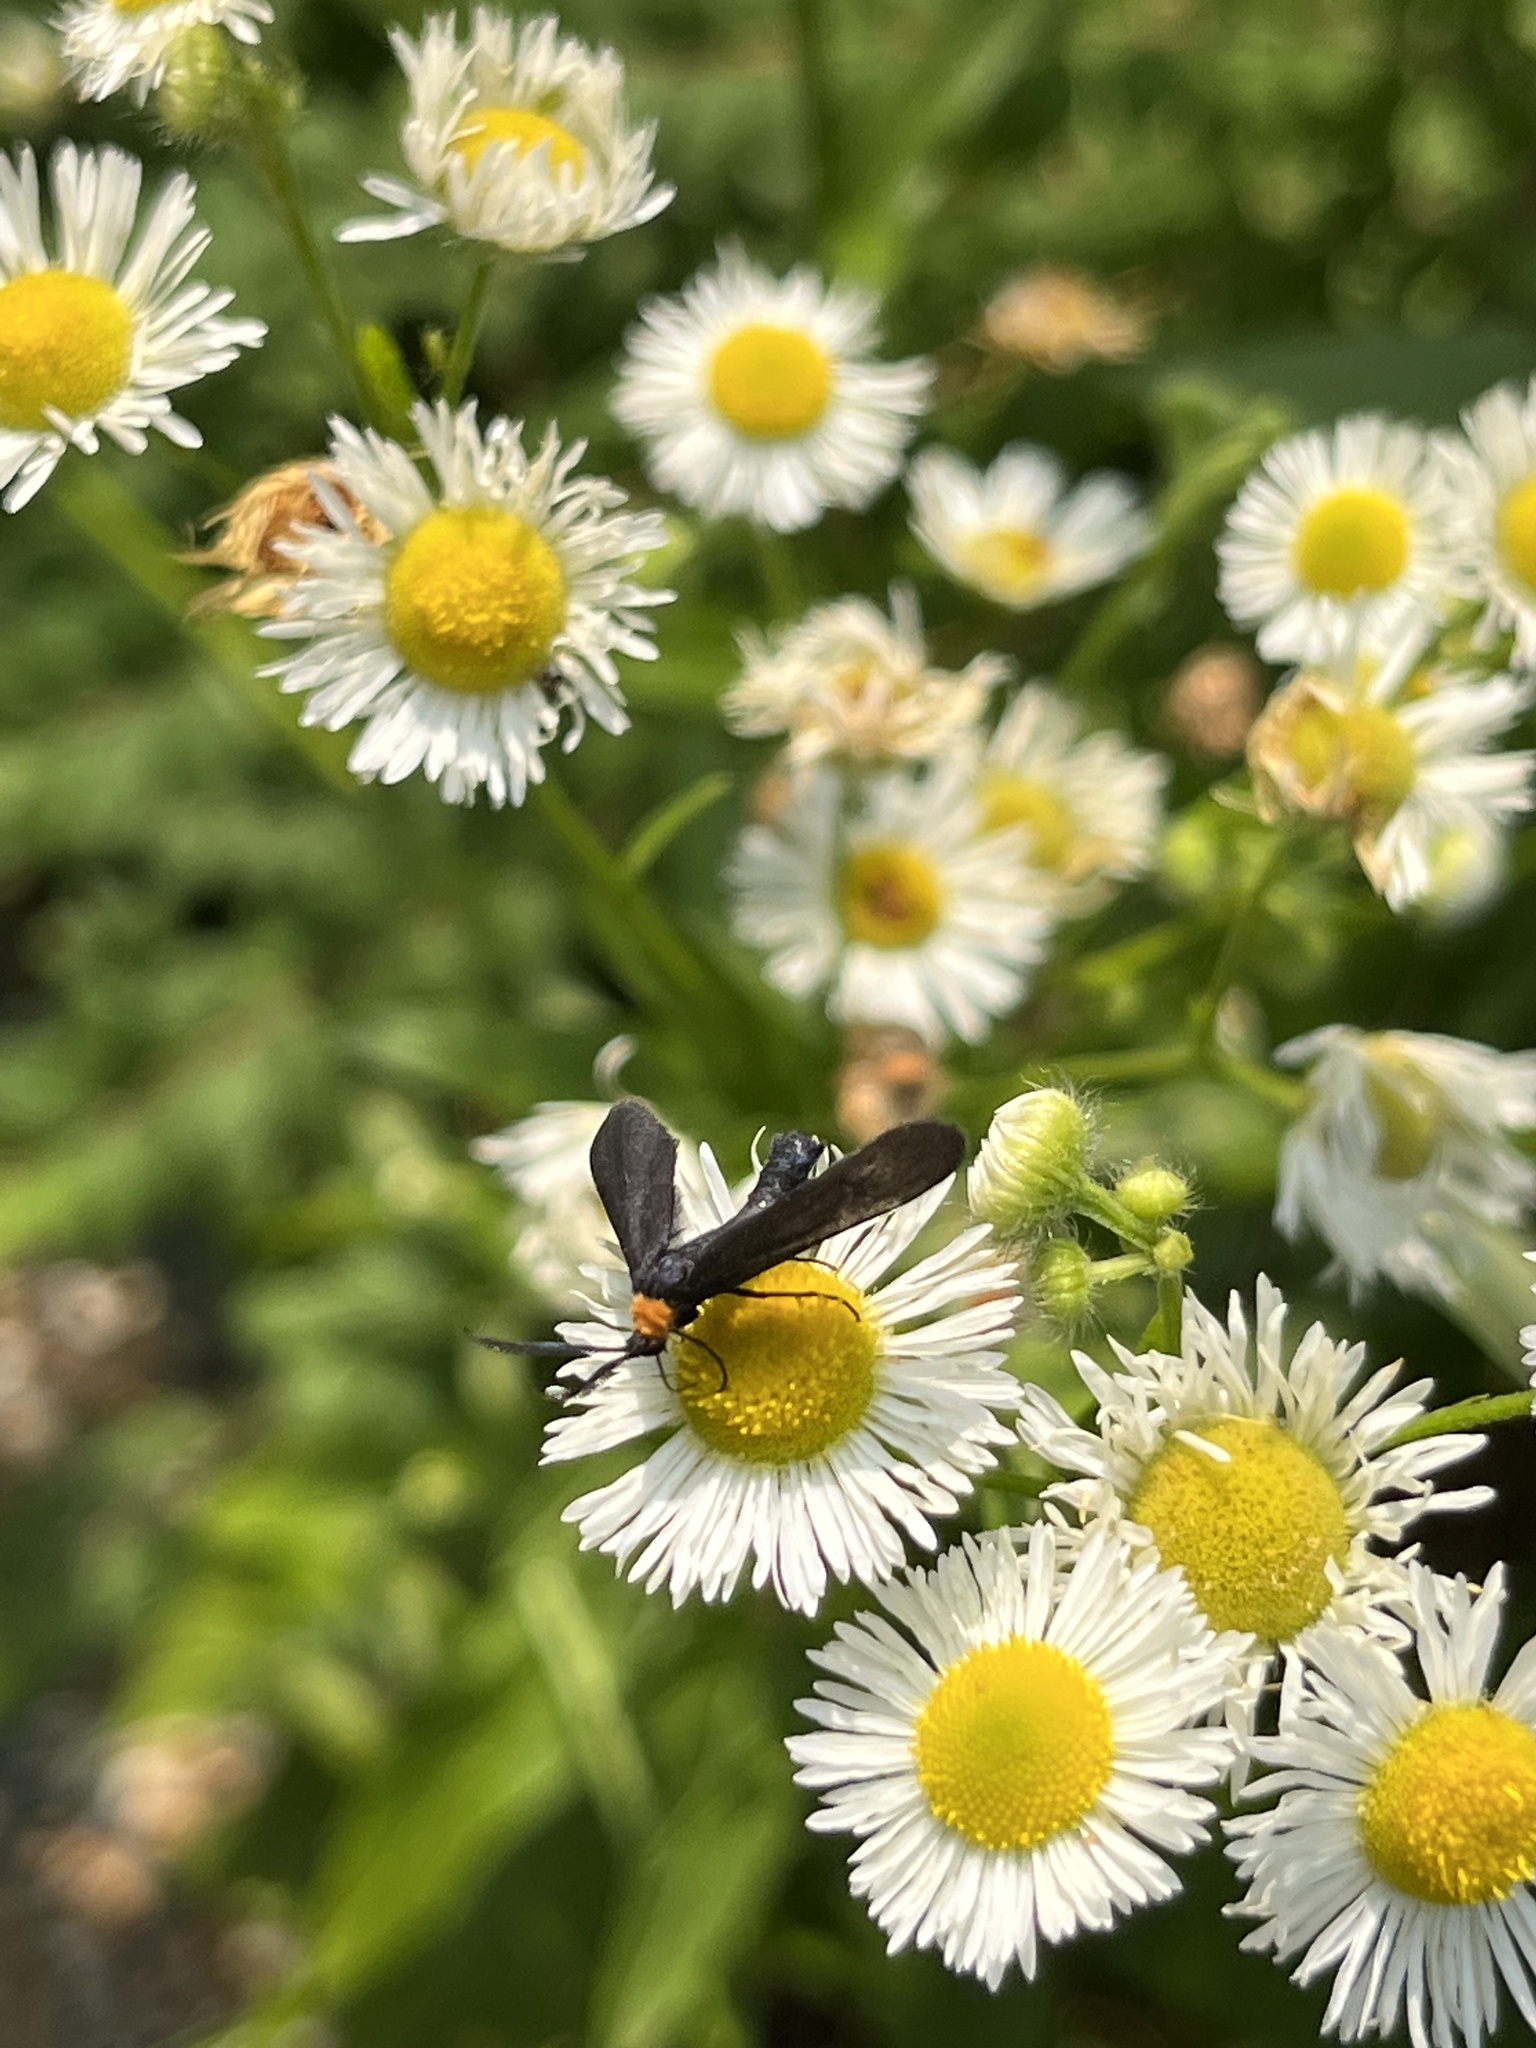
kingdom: Animalia
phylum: Arthropoda
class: Insecta
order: Lepidoptera
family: Zygaenidae
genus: Harrisina
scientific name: Harrisina americana
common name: Grapeleaf skeletonizer moth
